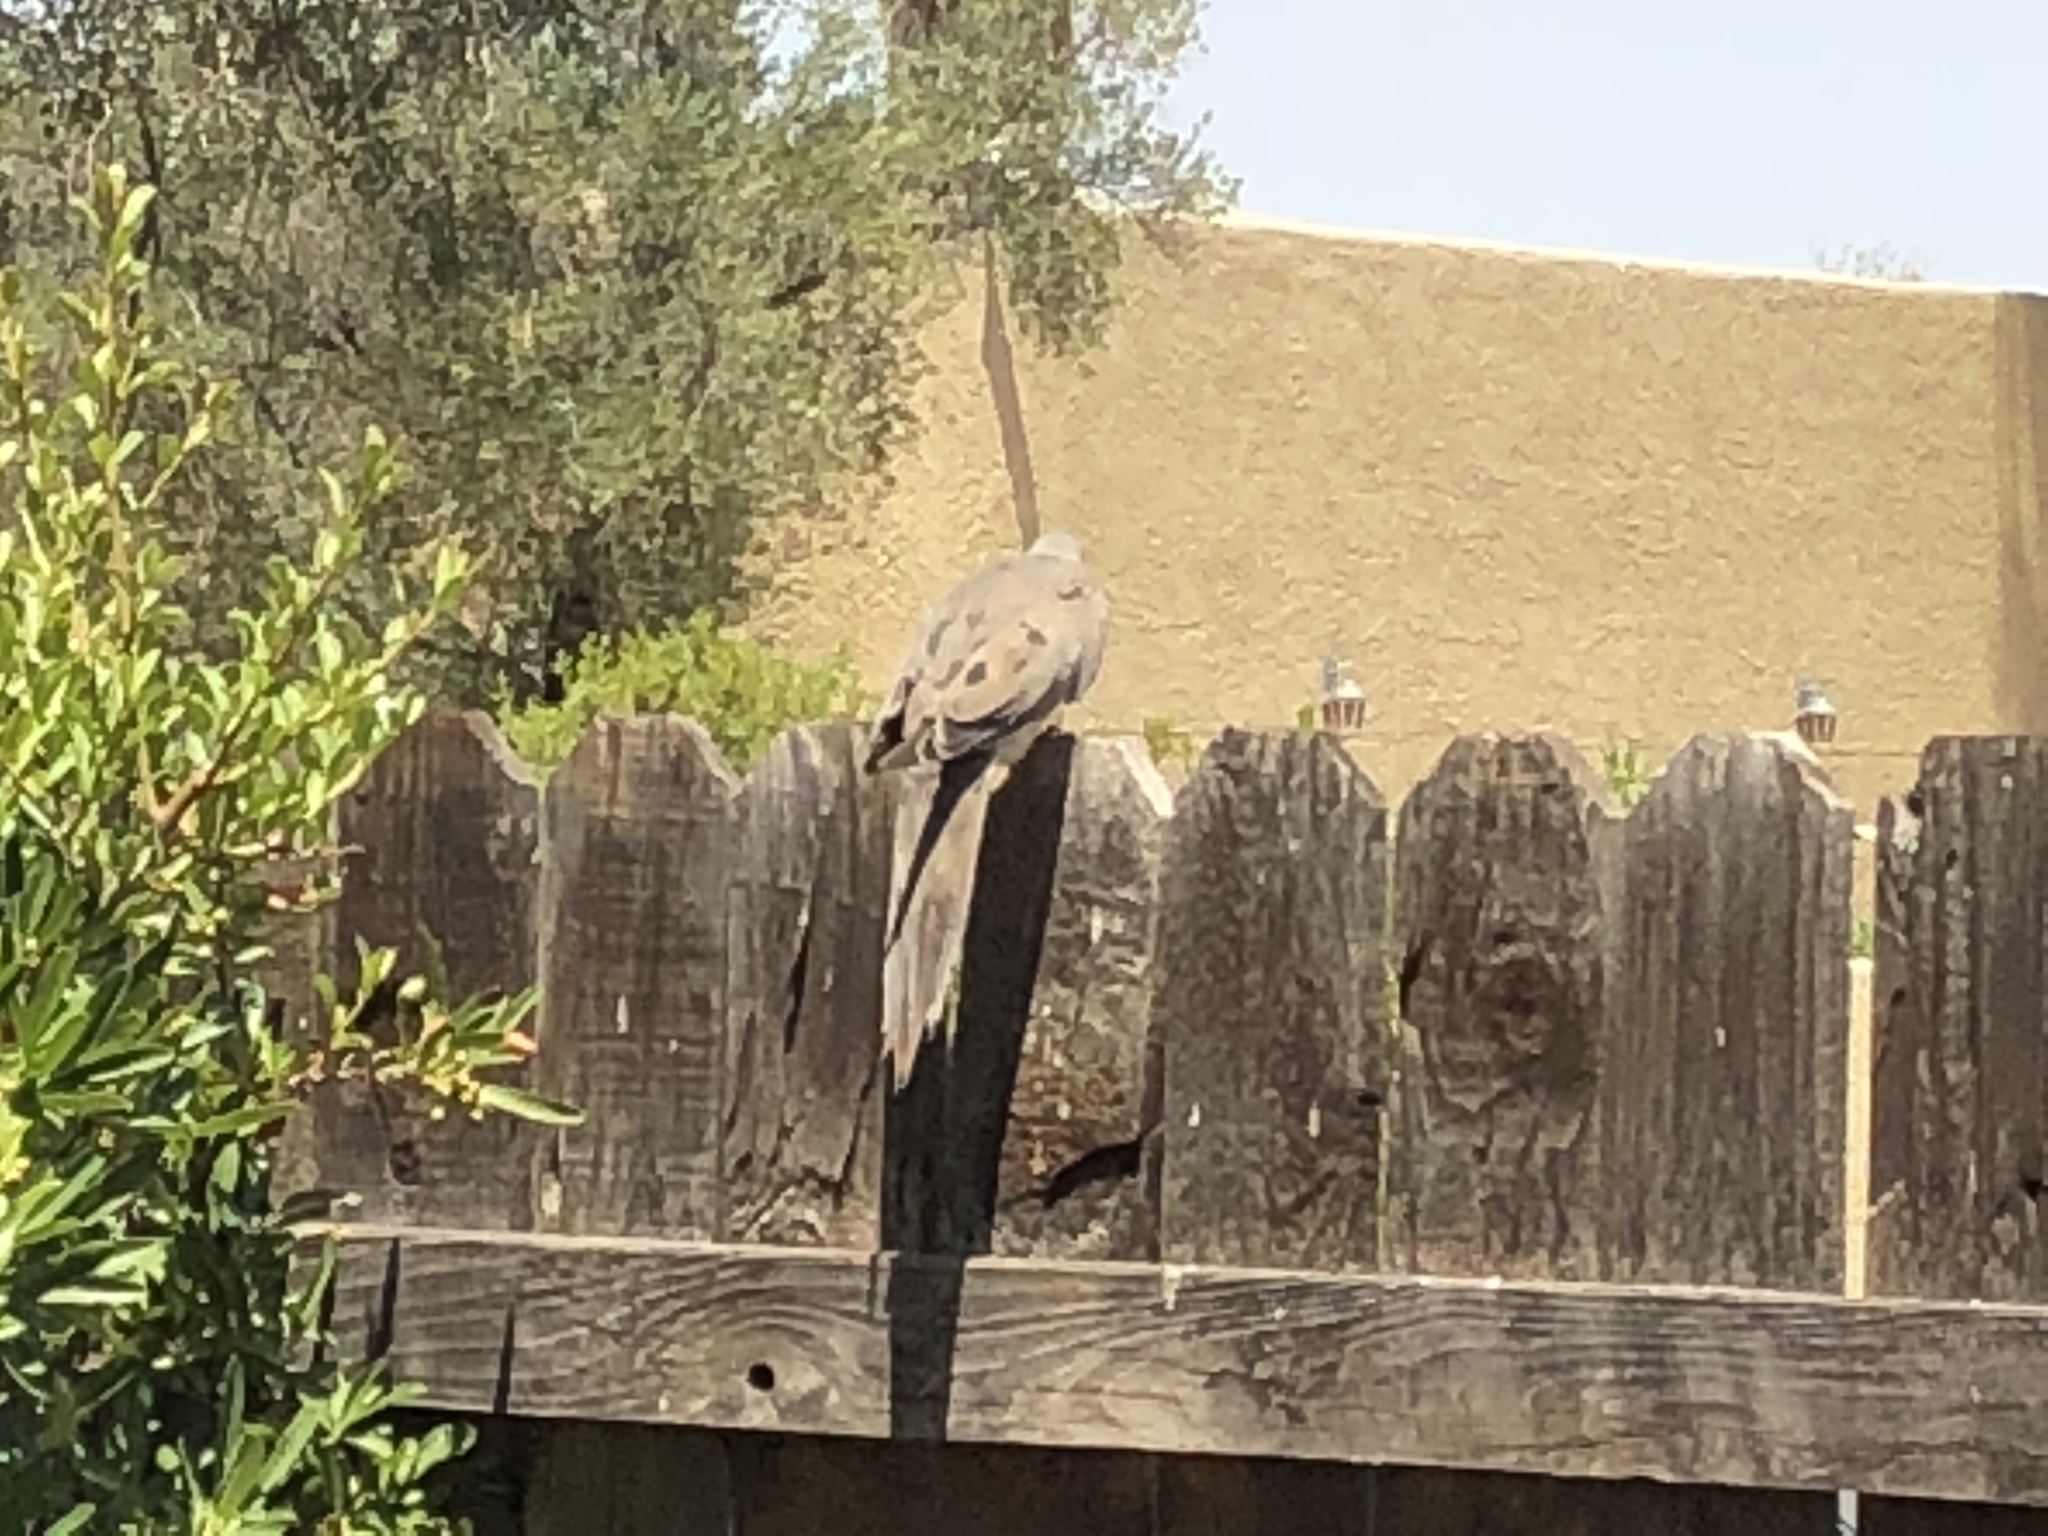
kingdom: Animalia
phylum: Chordata
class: Aves
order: Columbiformes
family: Columbidae
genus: Zenaida
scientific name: Zenaida macroura
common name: Mourning dove
